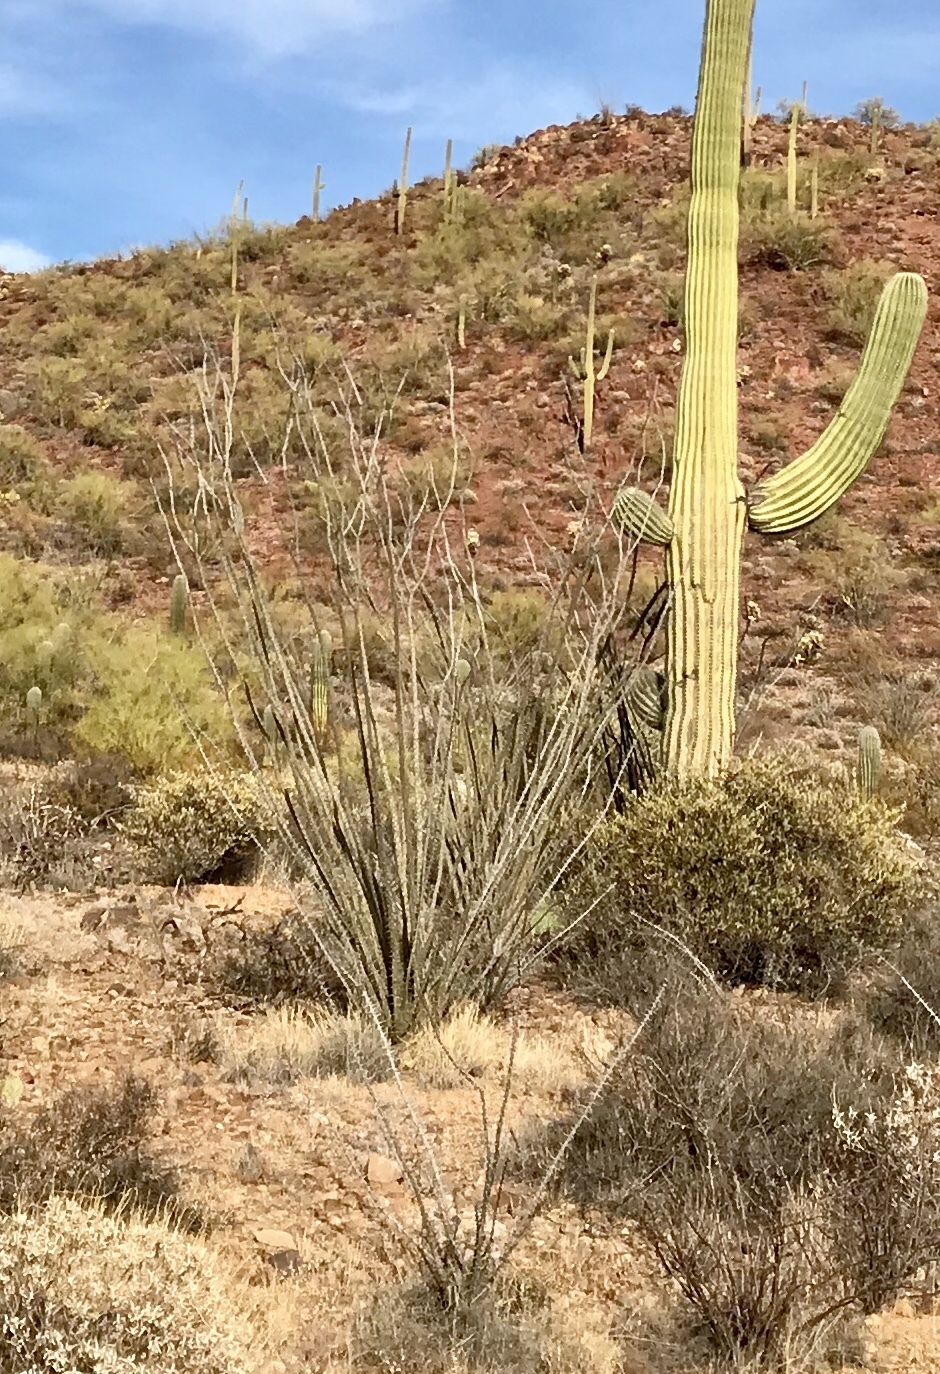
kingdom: Plantae
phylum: Tracheophyta
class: Magnoliopsida
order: Ericales
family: Fouquieriaceae
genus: Fouquieria
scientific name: Fouquieria splendens
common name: Vine-cactus
